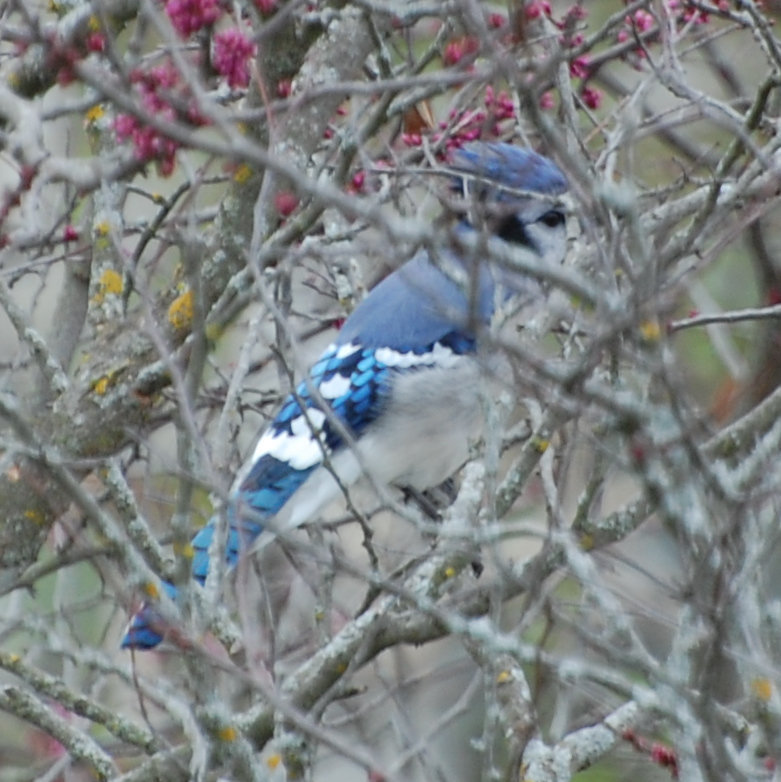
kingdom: Animalia
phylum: Chordata
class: Aves
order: Passeriformes
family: Corvidae
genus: Cyanocitta
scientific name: Cyanocitta cristata
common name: Blue jay
